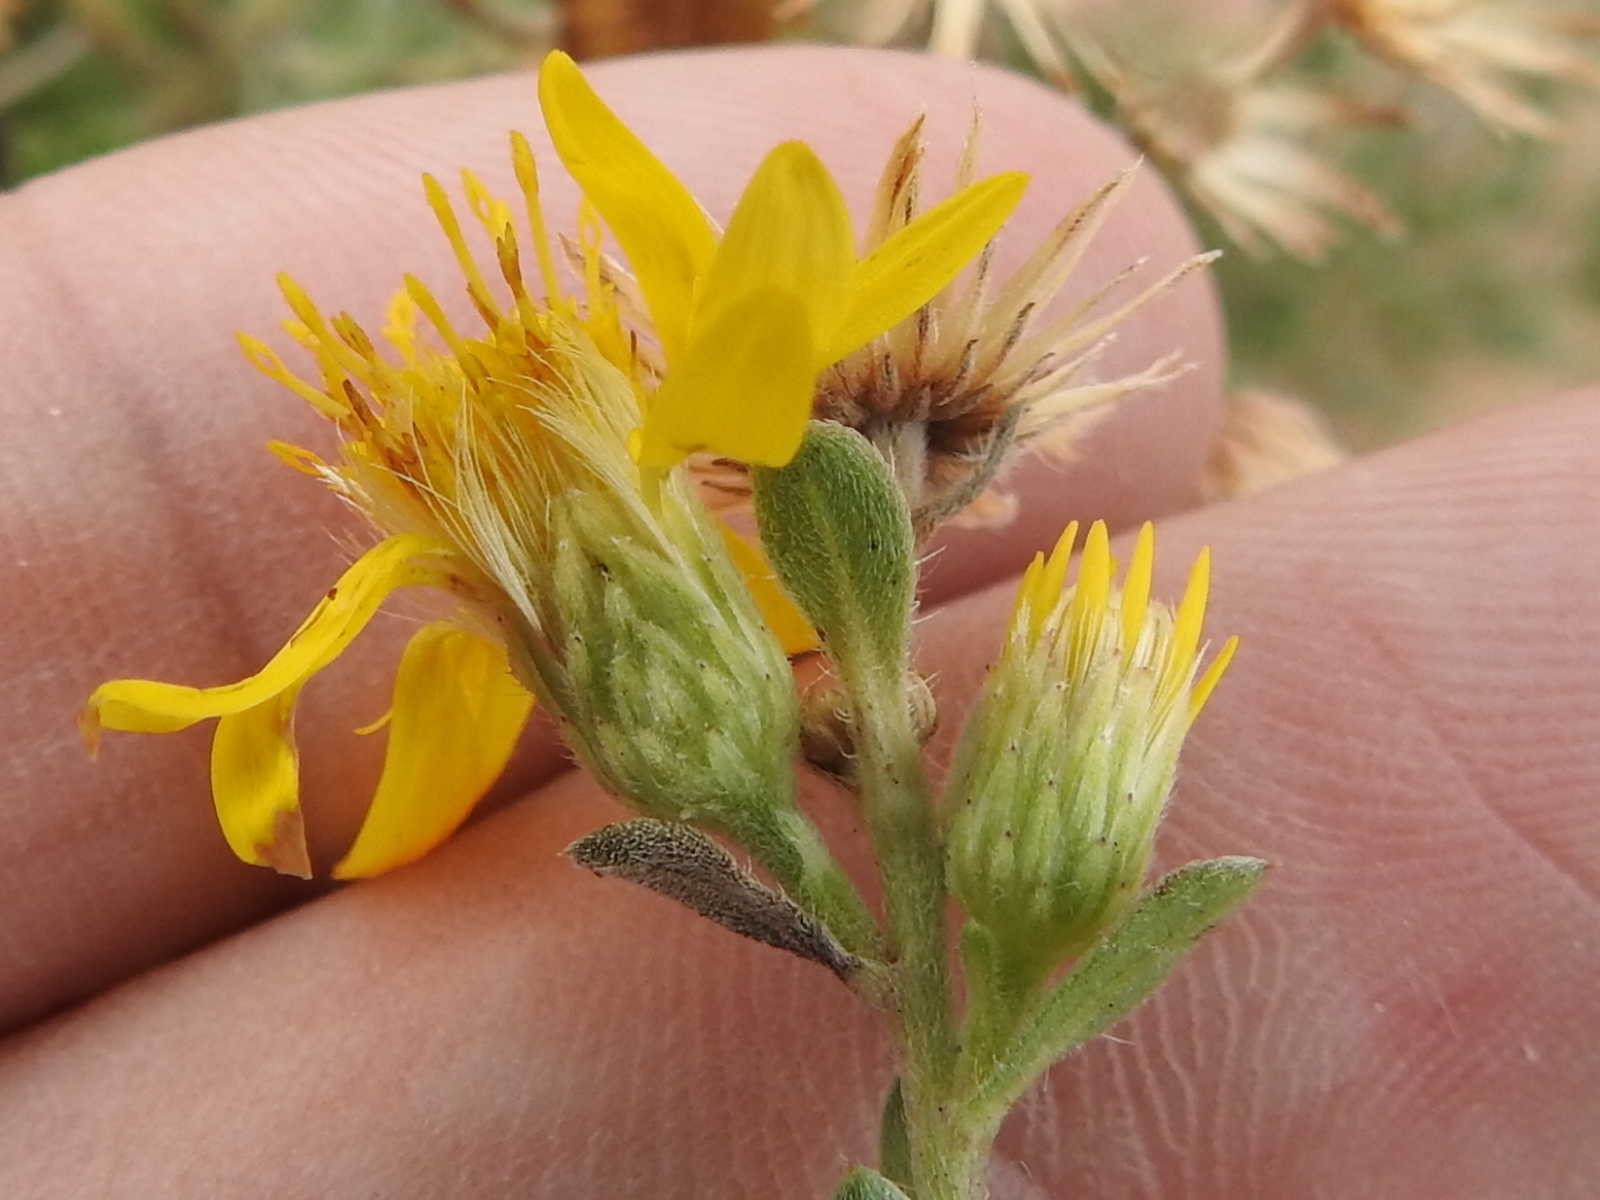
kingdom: Plantae
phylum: Tracheophyta
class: Magnoliopsida
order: Asterales
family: Asteraceae
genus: Heterotheca
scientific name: Heterotheca hirsutissima
